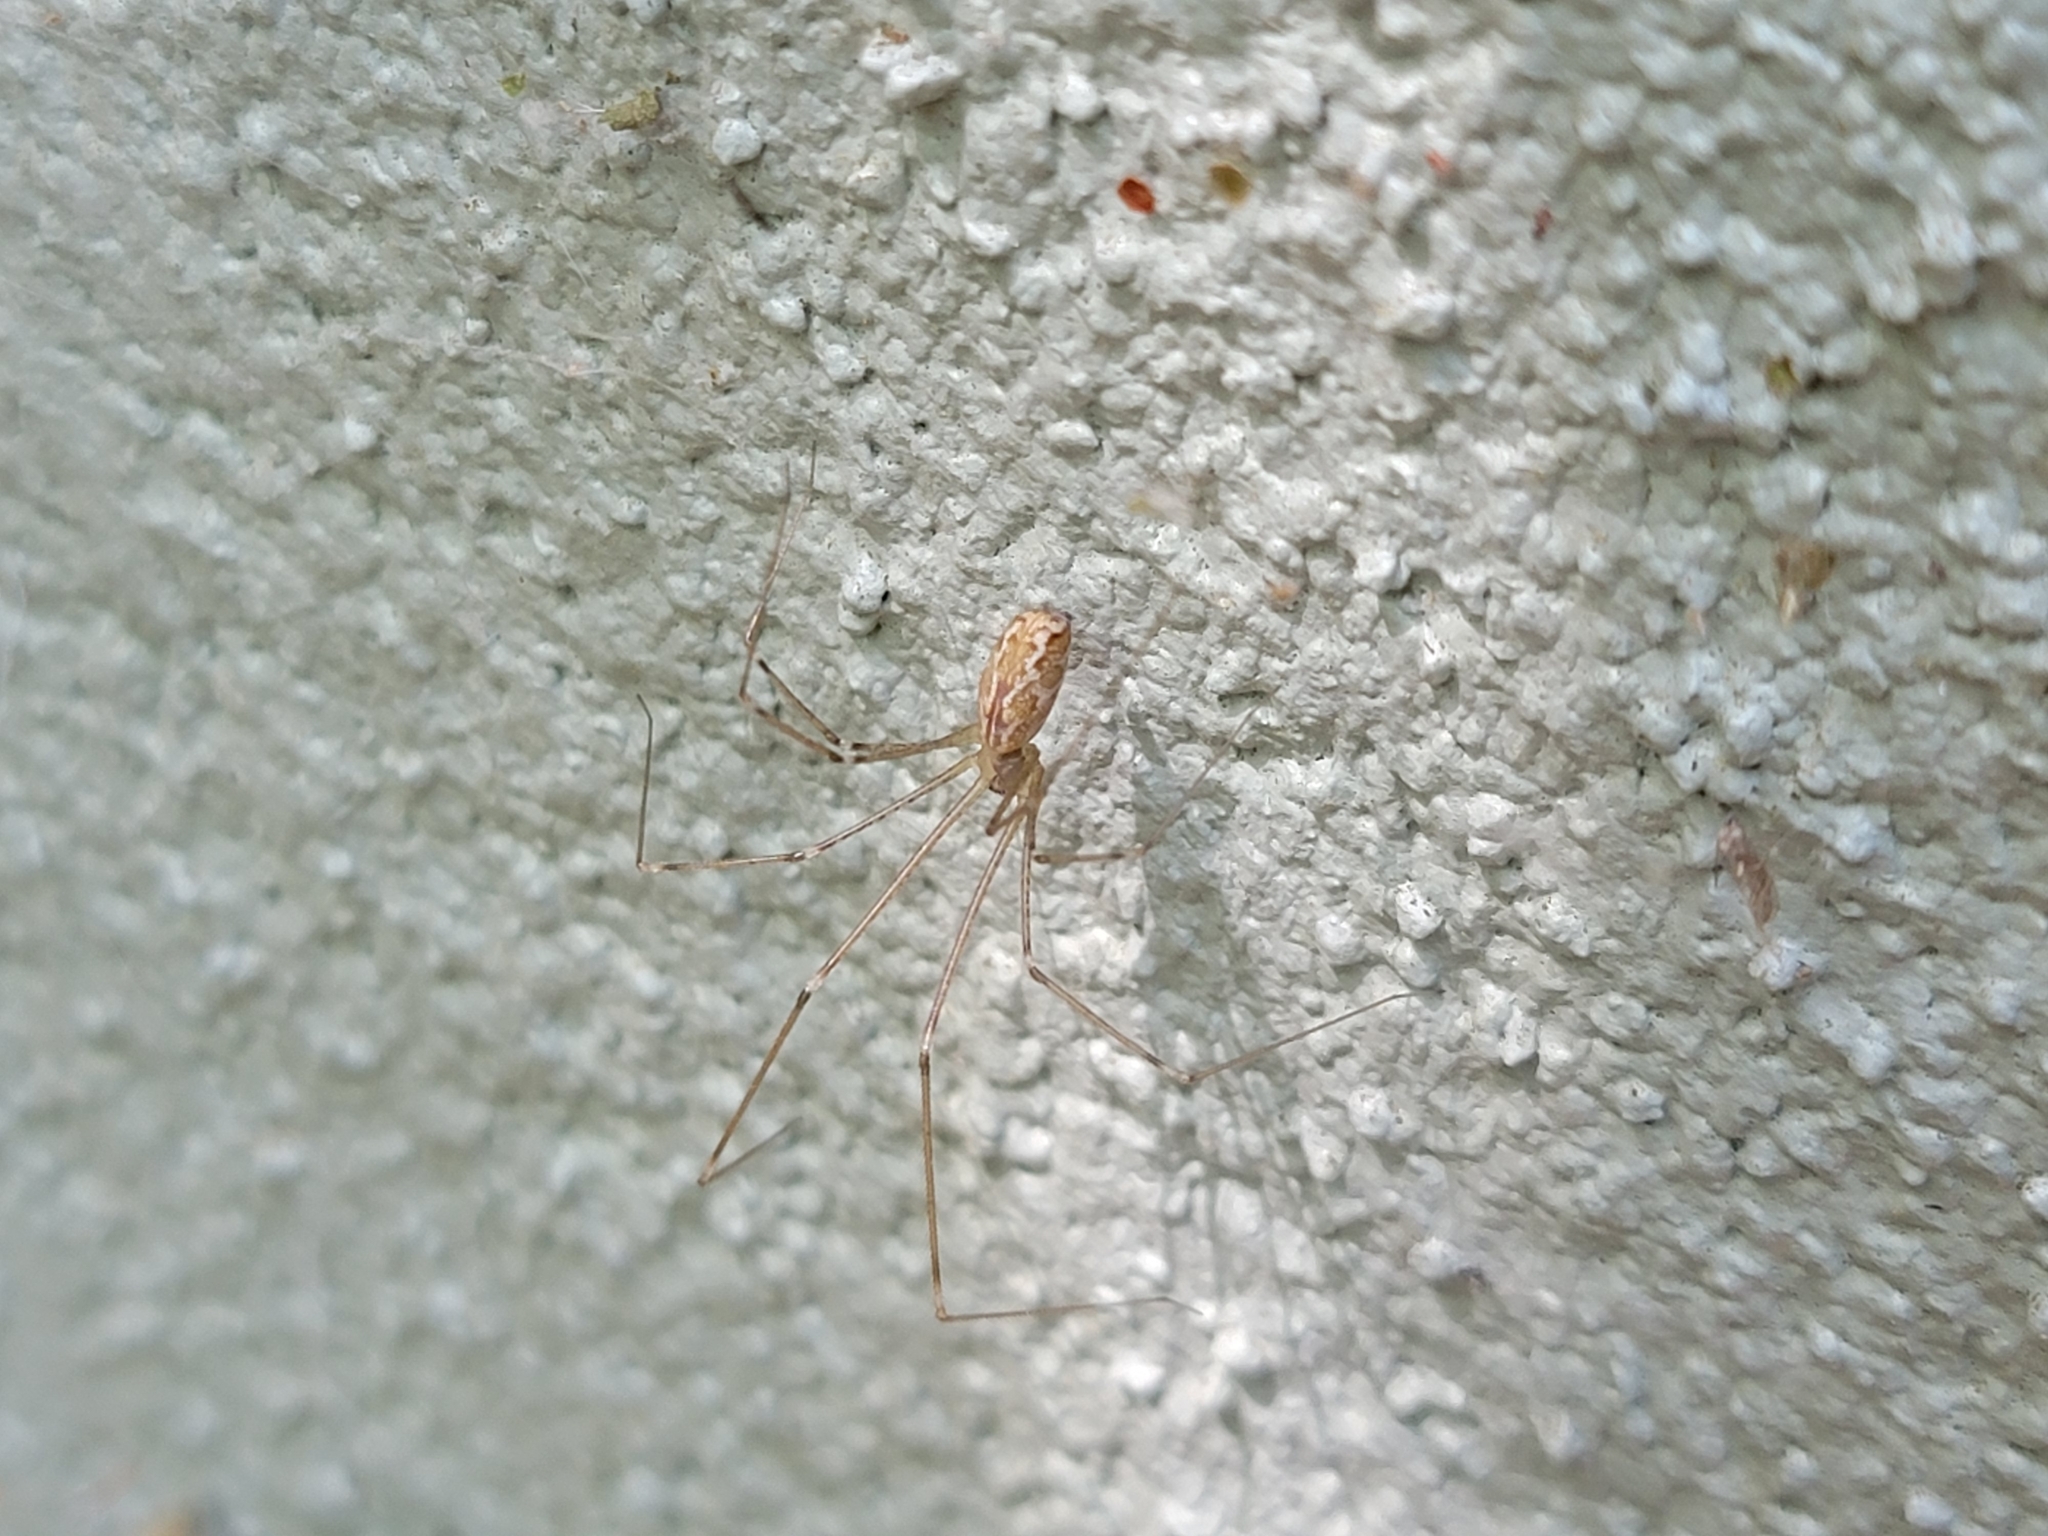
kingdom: Animalia
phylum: Arthropoda
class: Arachnida
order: Araneae
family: Pholcidae
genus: Holocnemus
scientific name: Holocnemus pluchei
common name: Marbled cellar spider
